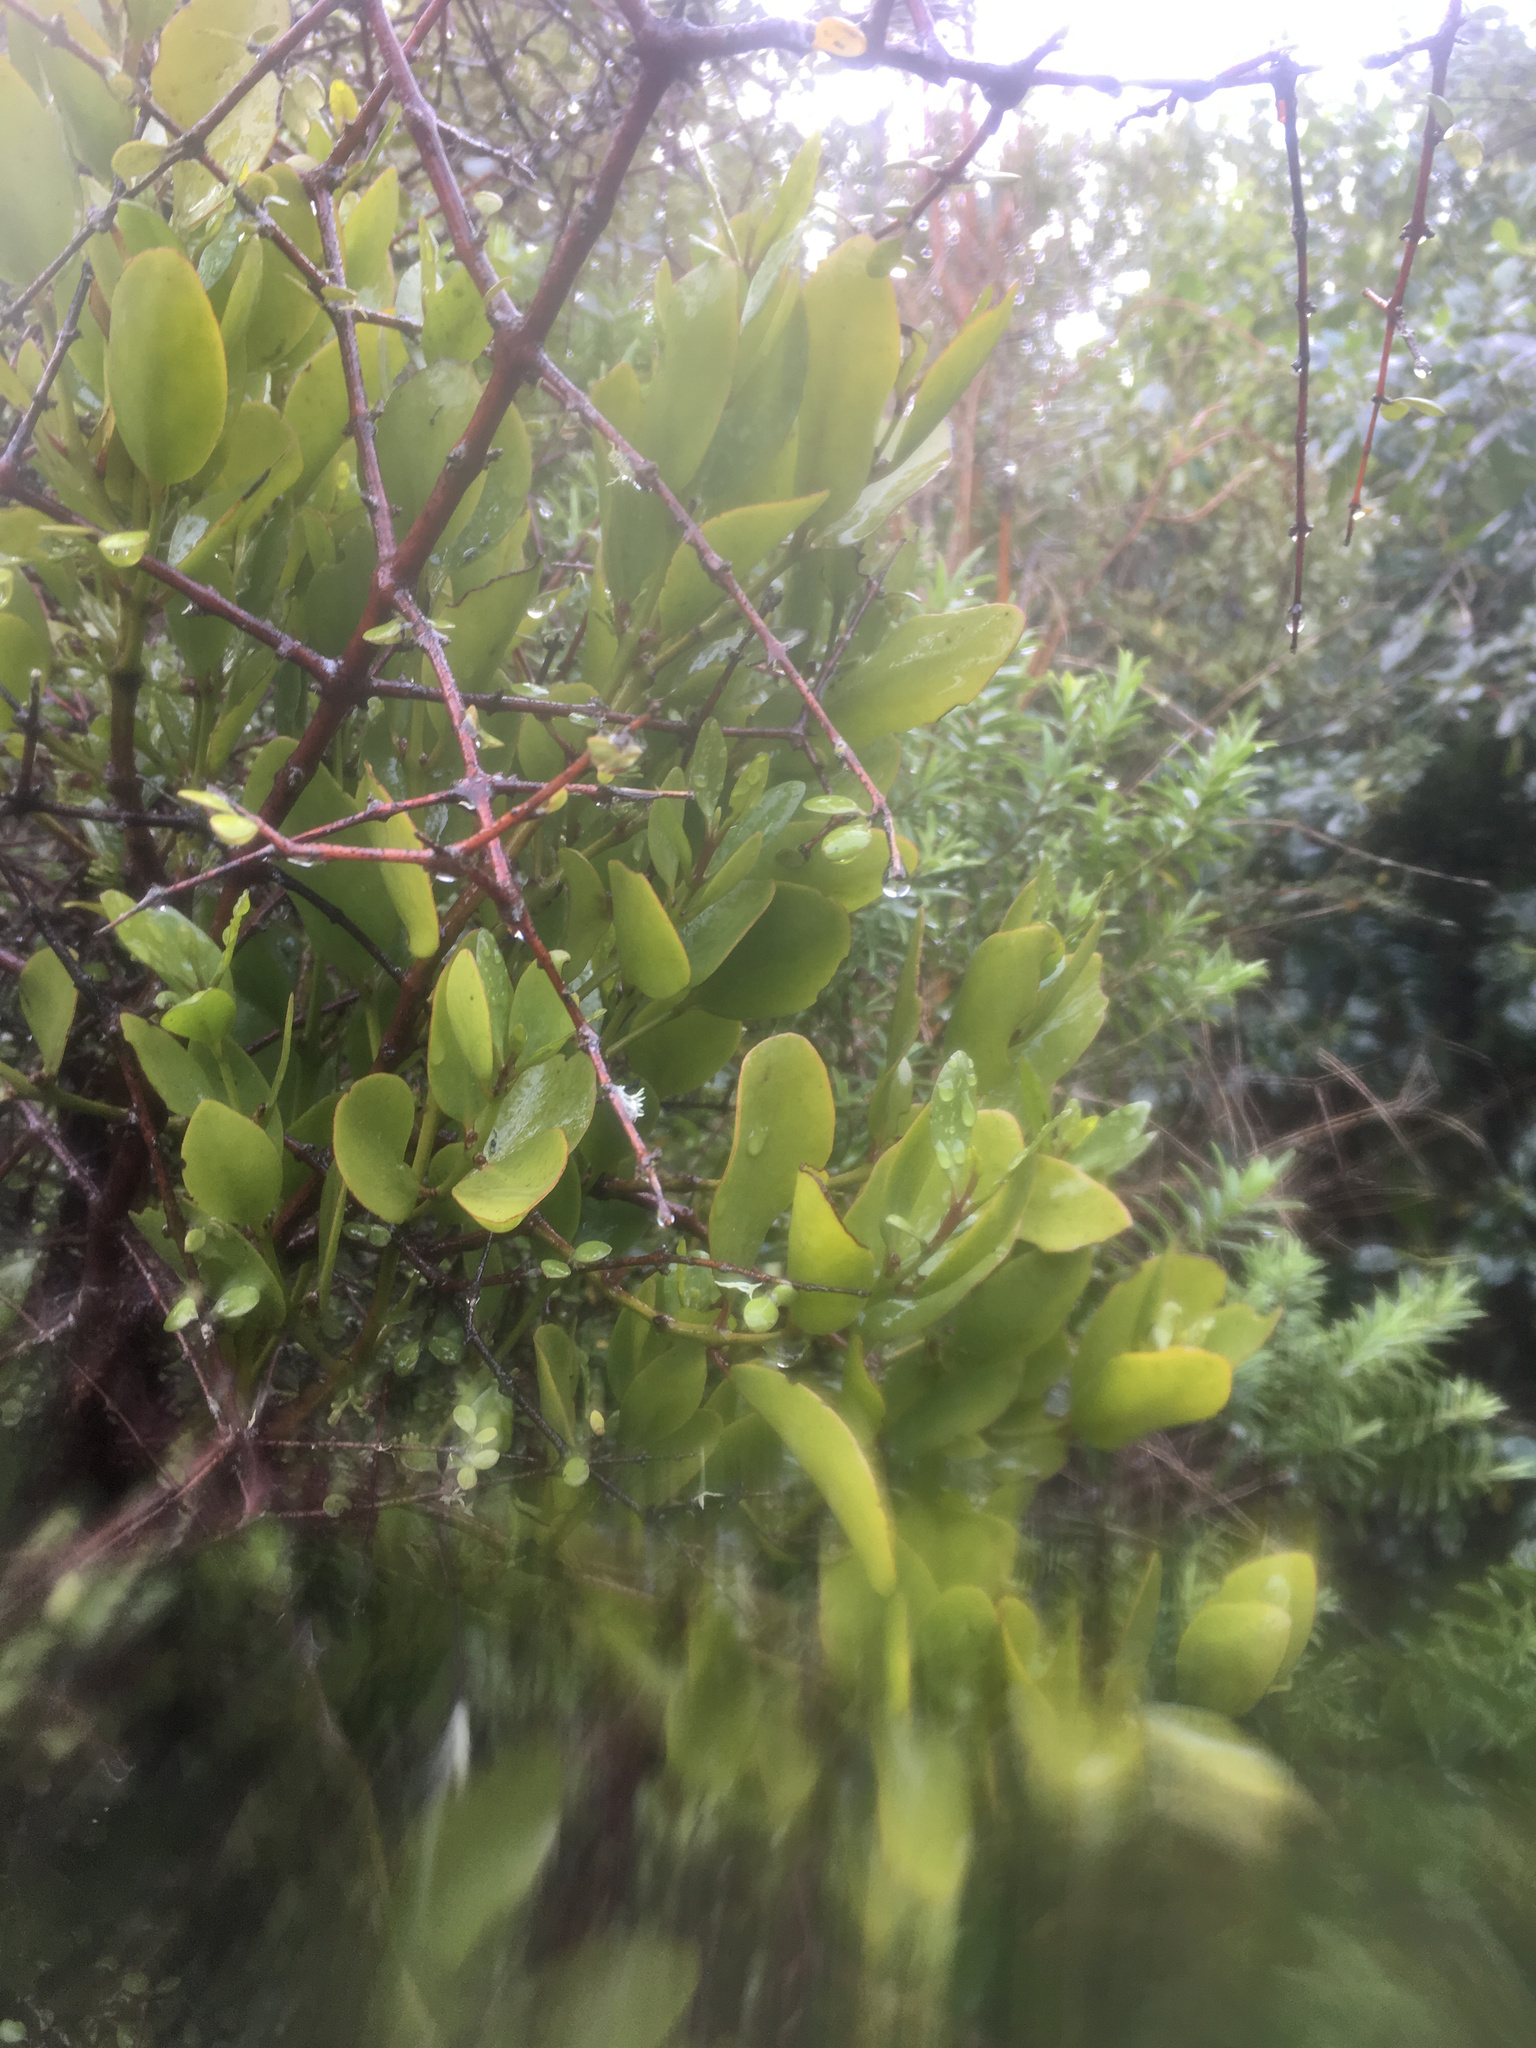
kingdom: Plantae
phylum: Tracheophyta
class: Magnoliopsida
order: Santalales
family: Loranthaceae
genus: Ileostylus
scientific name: Ileostylus micranthus
